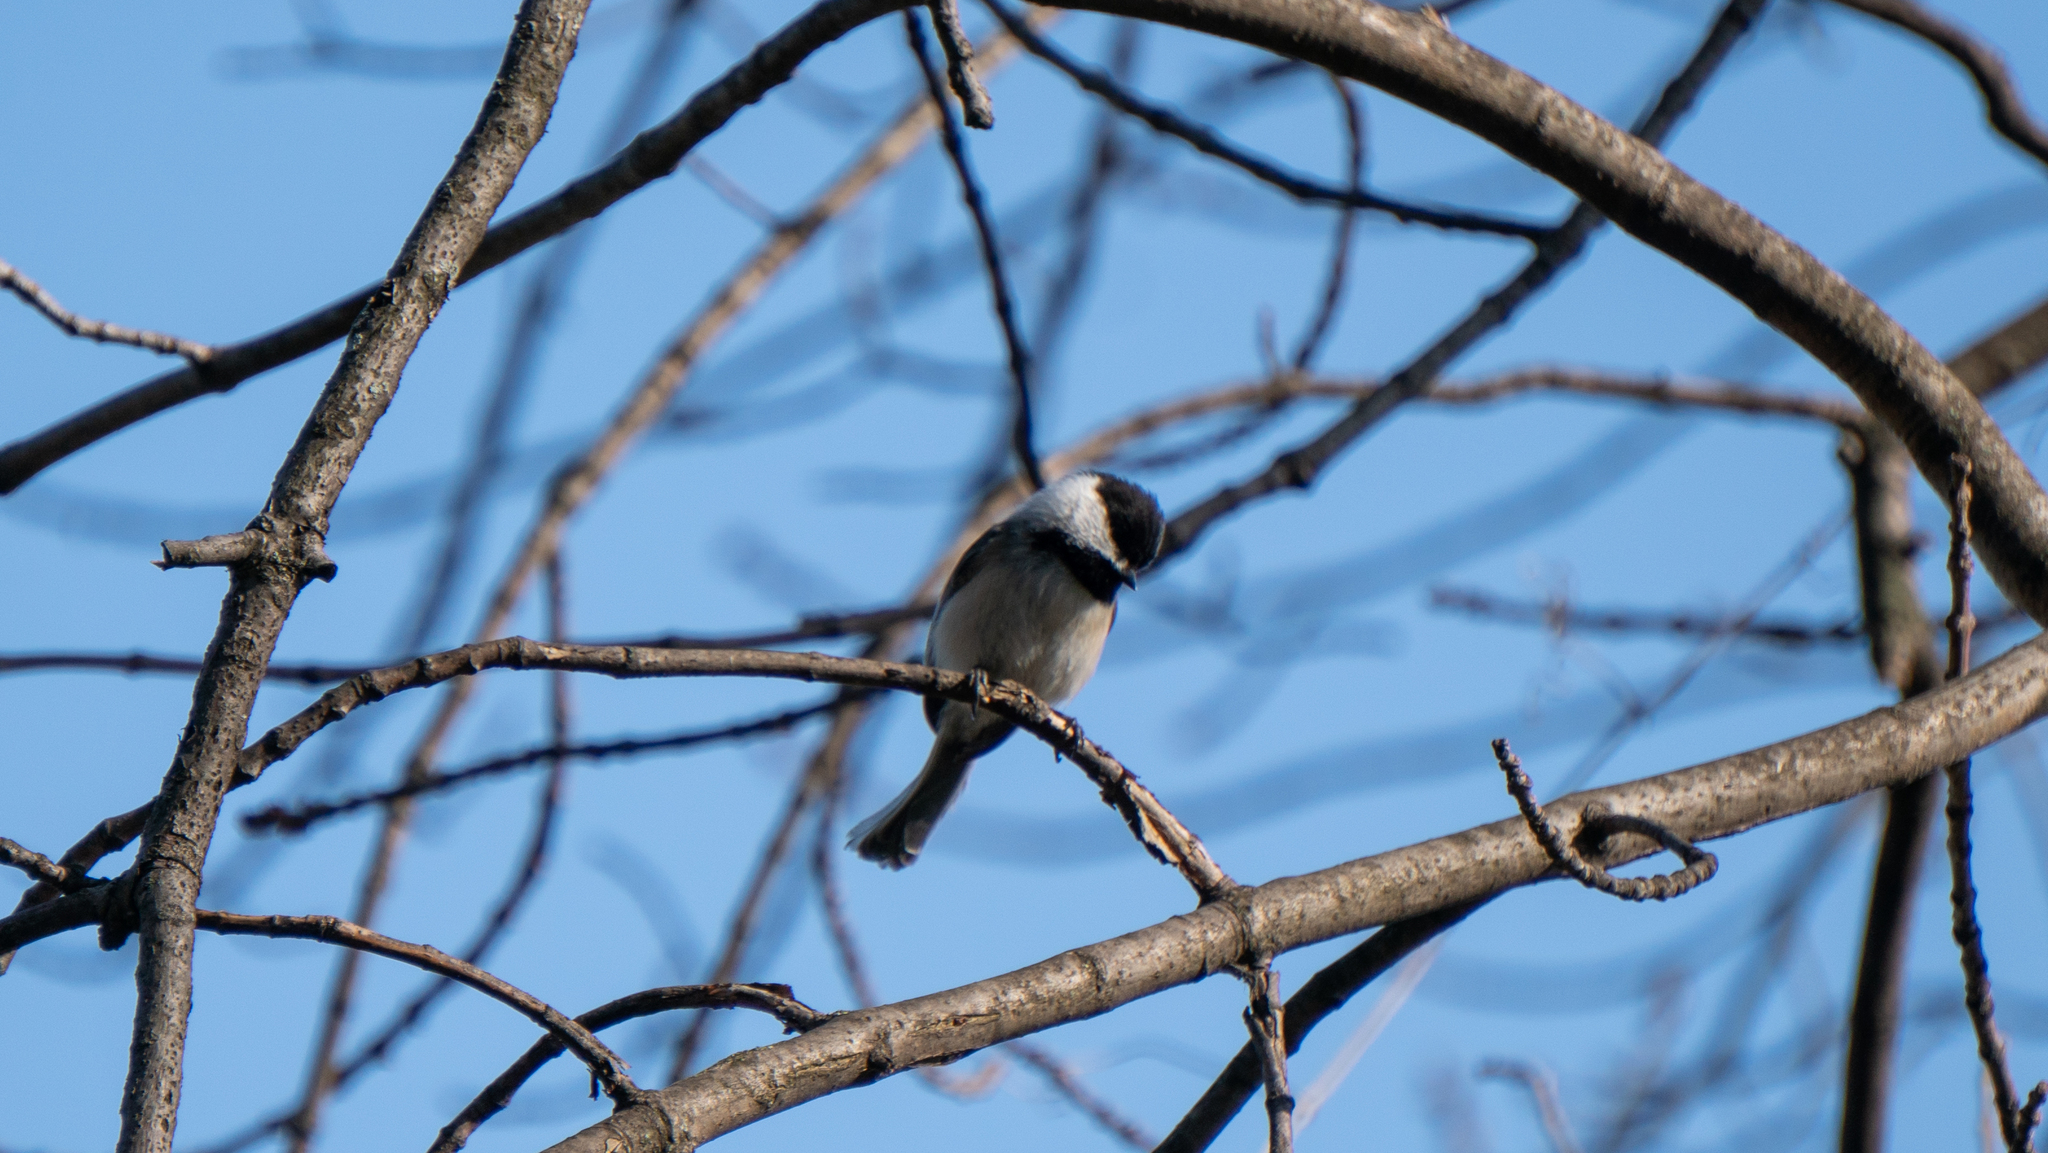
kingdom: Animalia
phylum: Chordata
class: Aves
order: Passeriformes
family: Paridae
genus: Poecile
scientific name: Poecile atricapillus
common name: Black-capped chickadee
